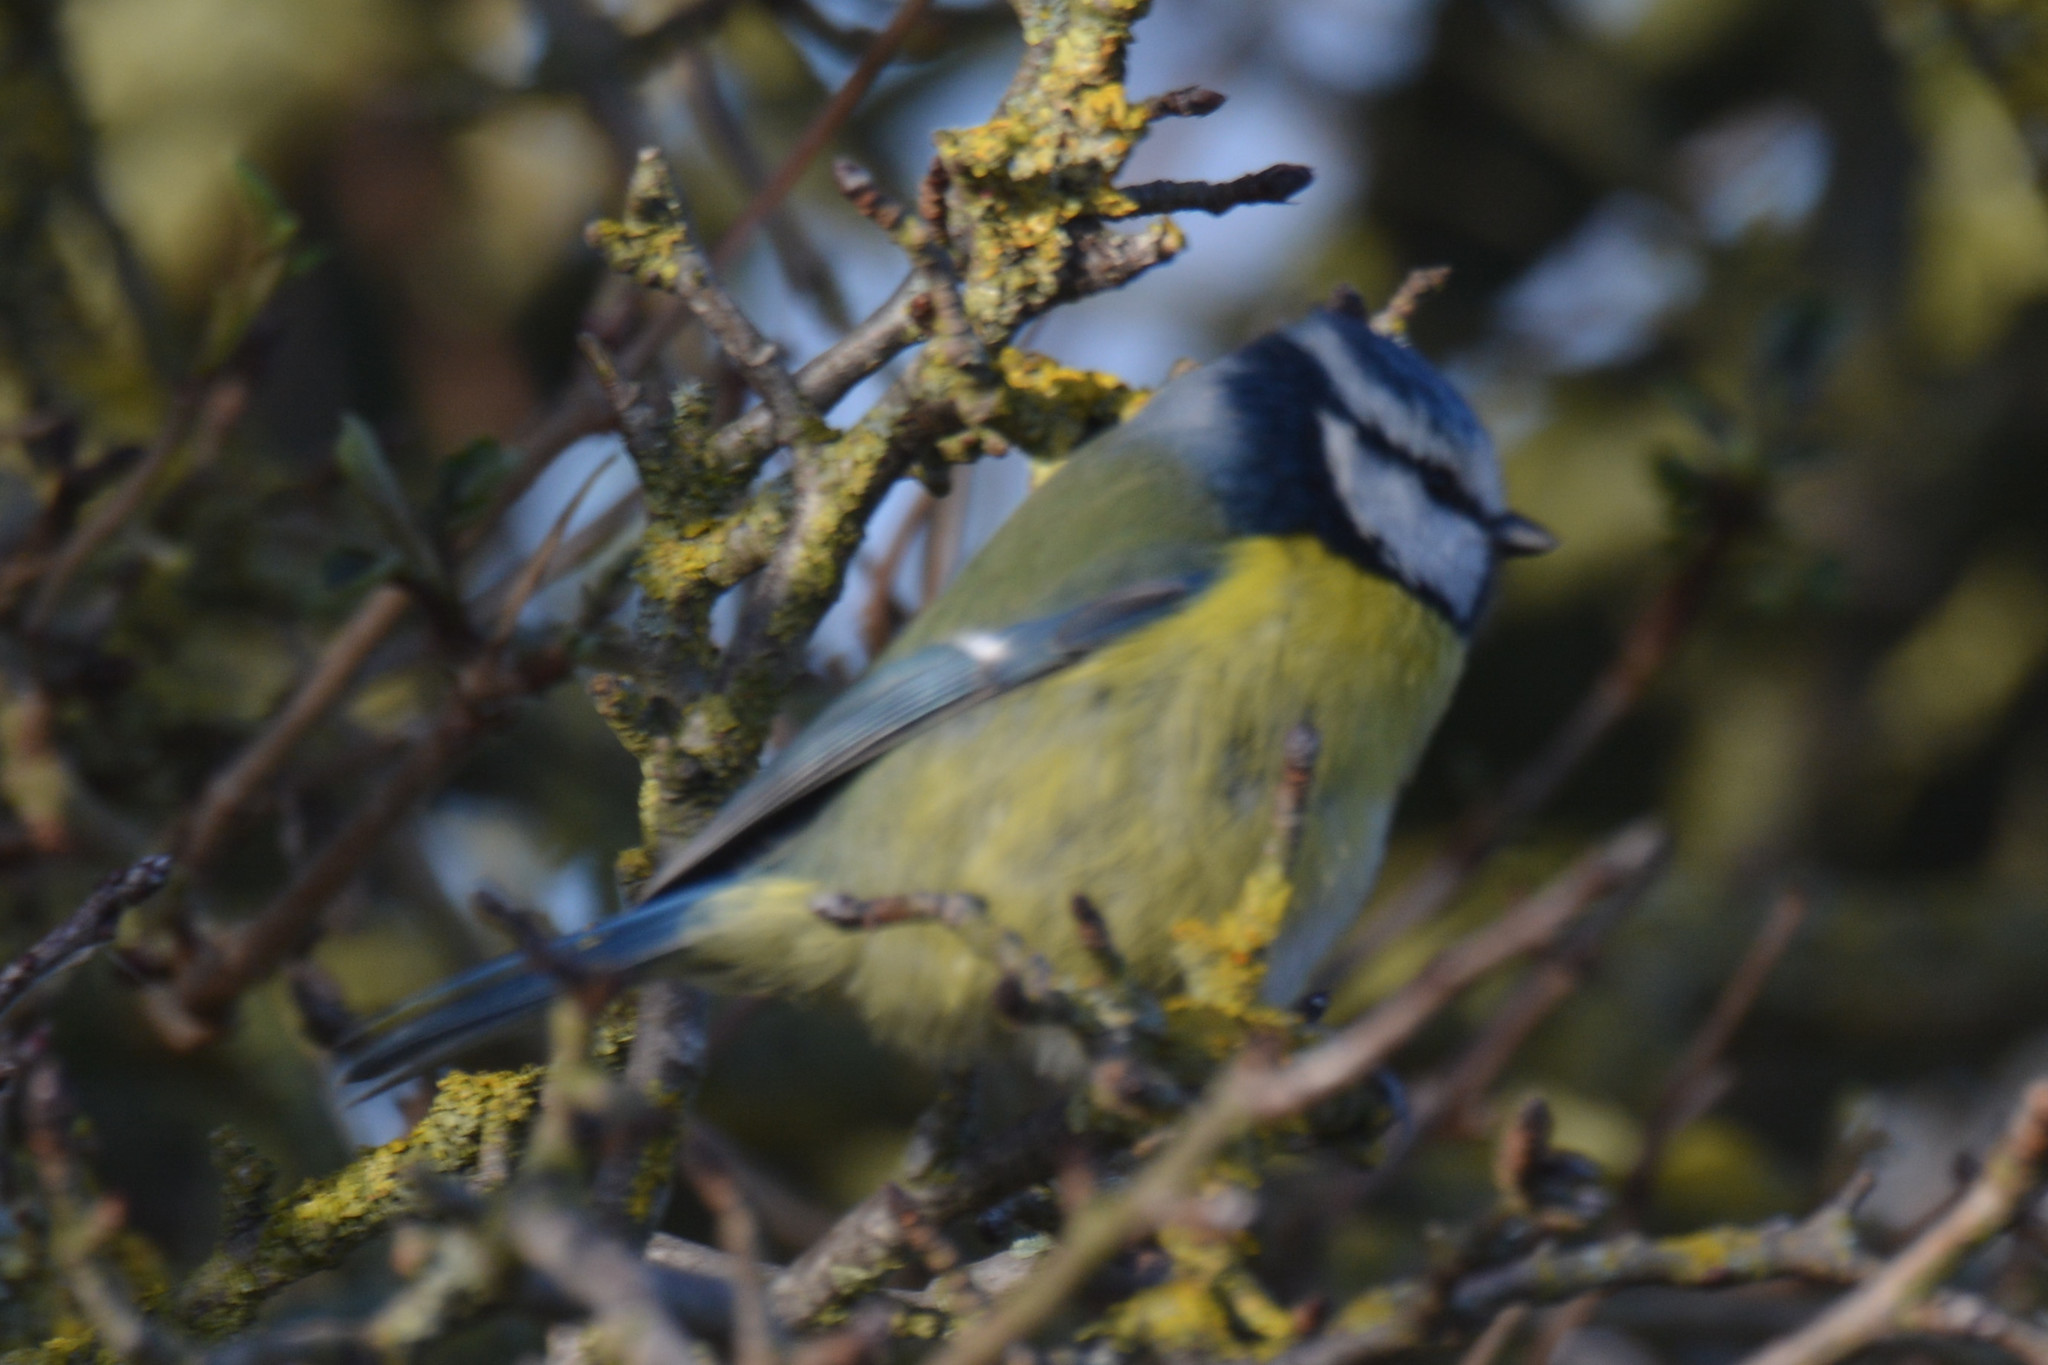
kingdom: Animalia
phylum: Chordata
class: Aves
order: Passeriformes
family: Paridae
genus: Cyanistes
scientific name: Cyanistes caeruleus
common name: Eurasian blue tit
